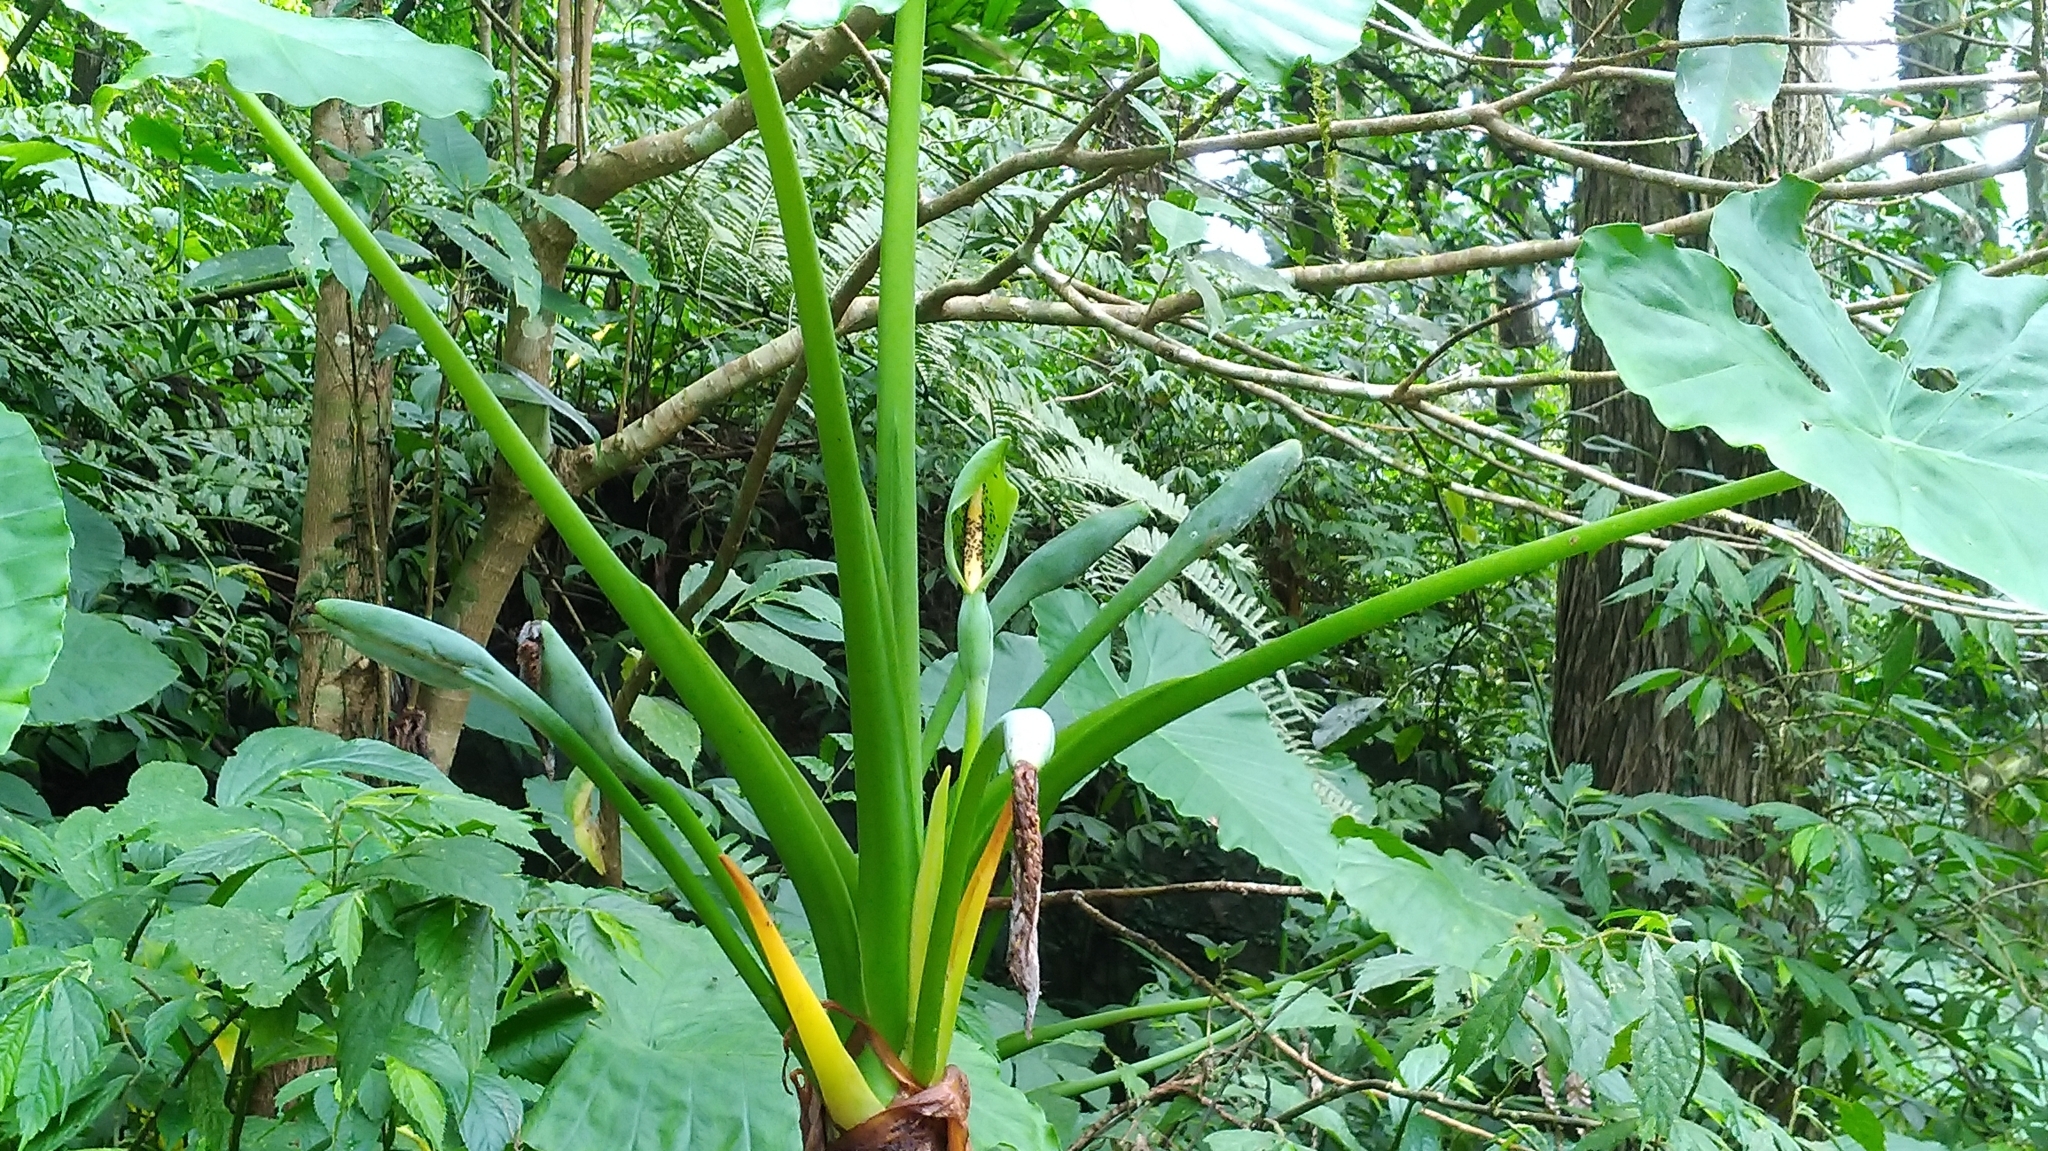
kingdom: Plantae
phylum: Tracheophyta
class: Liliopsida
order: Alismatales
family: Araceae
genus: Alocasia
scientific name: Alocasia odora
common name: Asian taro
